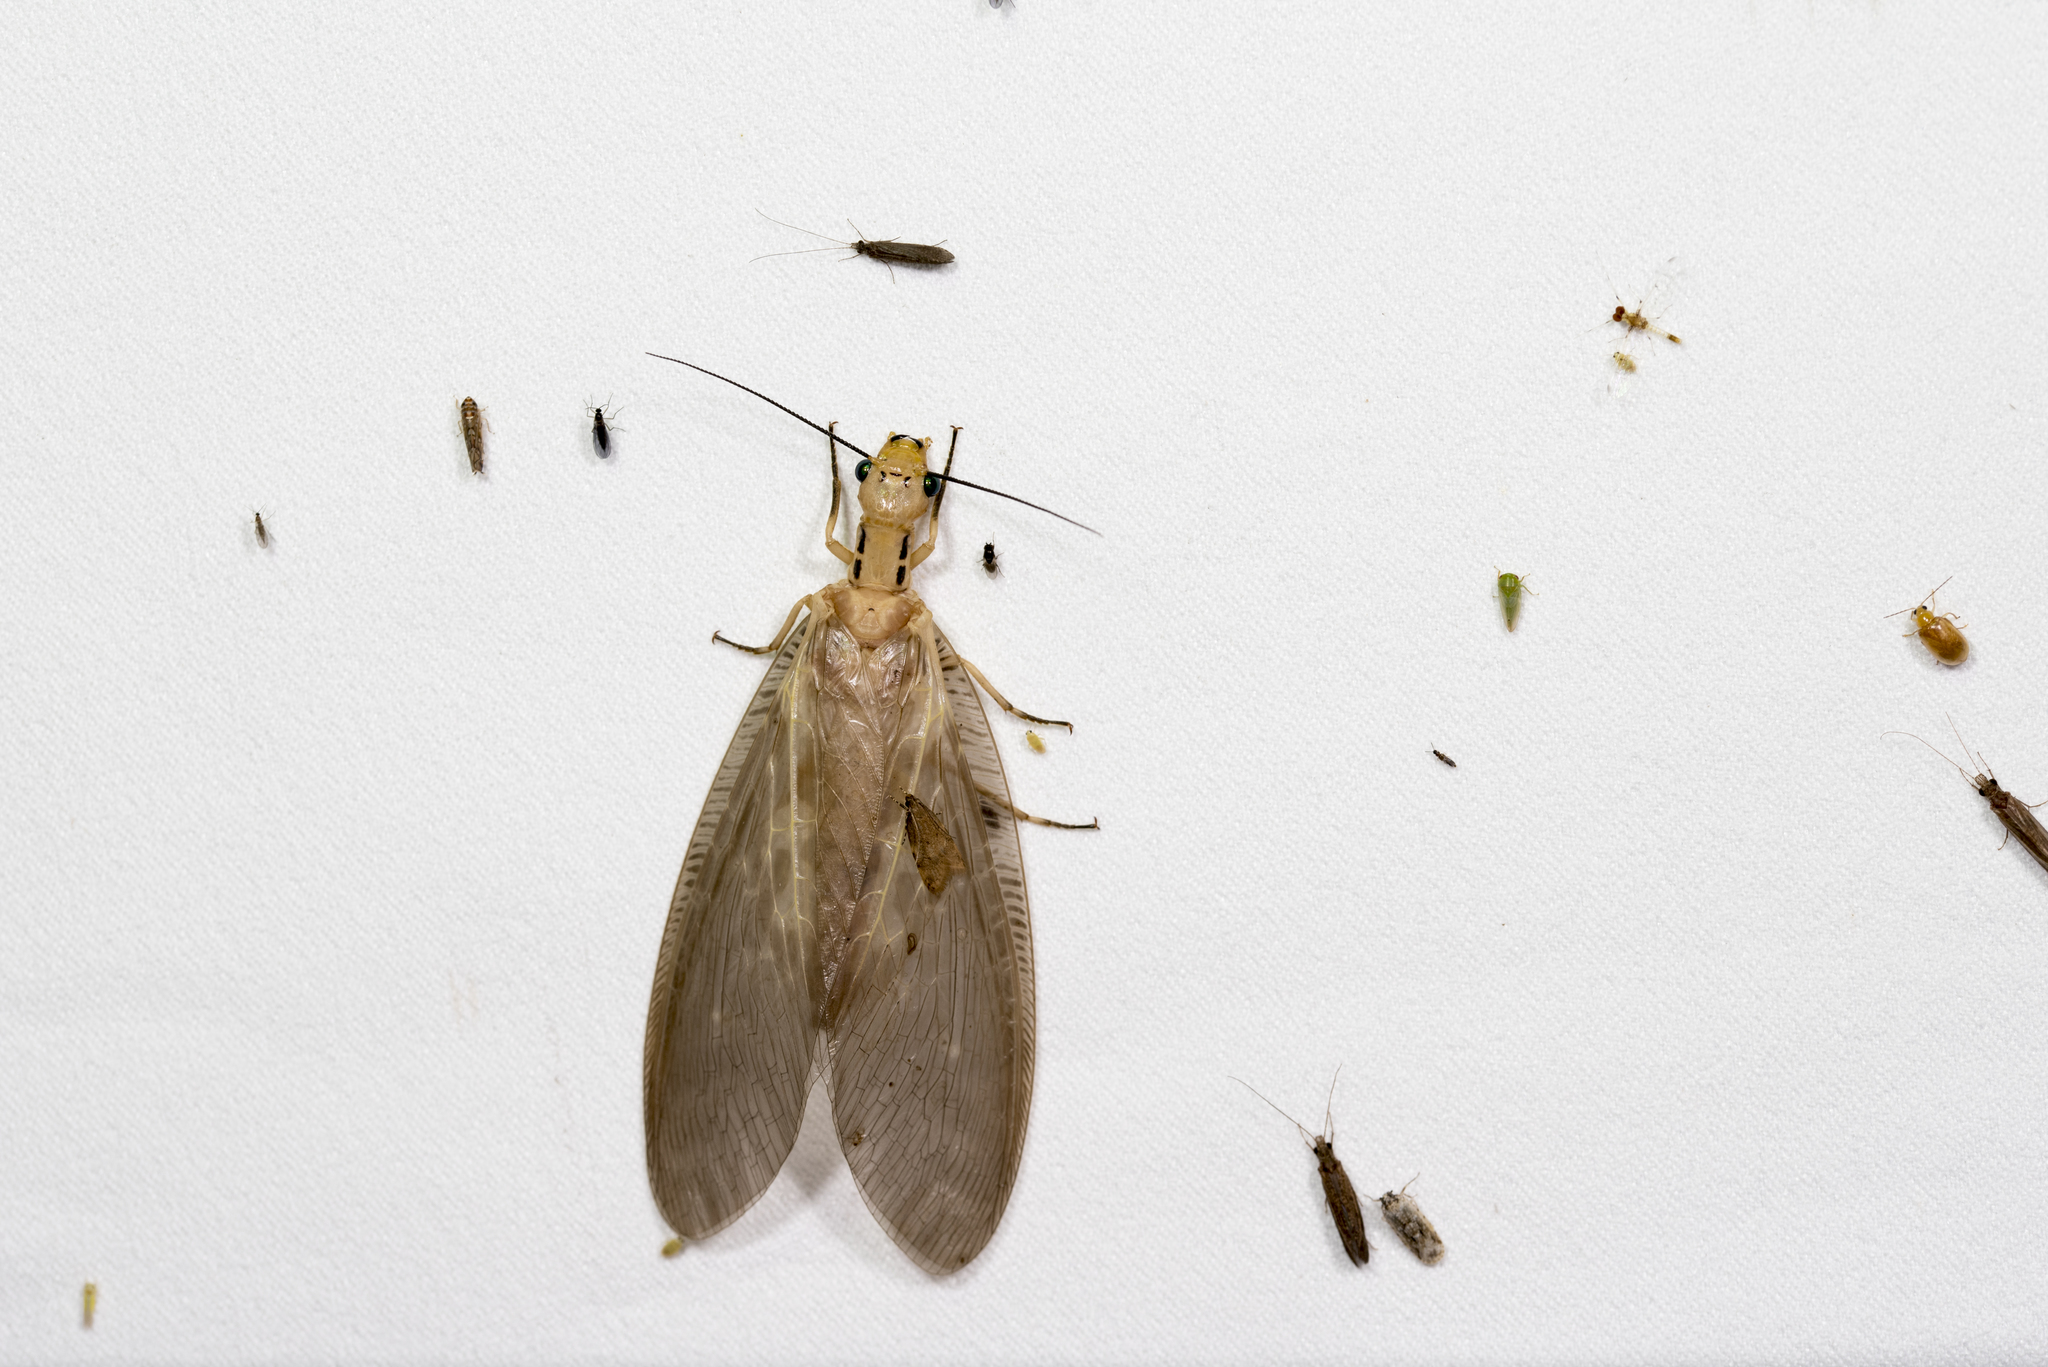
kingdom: Animalia
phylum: Arthropoda
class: Insecta
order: Megaloptera
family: Corydalidae
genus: Protohermes
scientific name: Protohermes costalis
